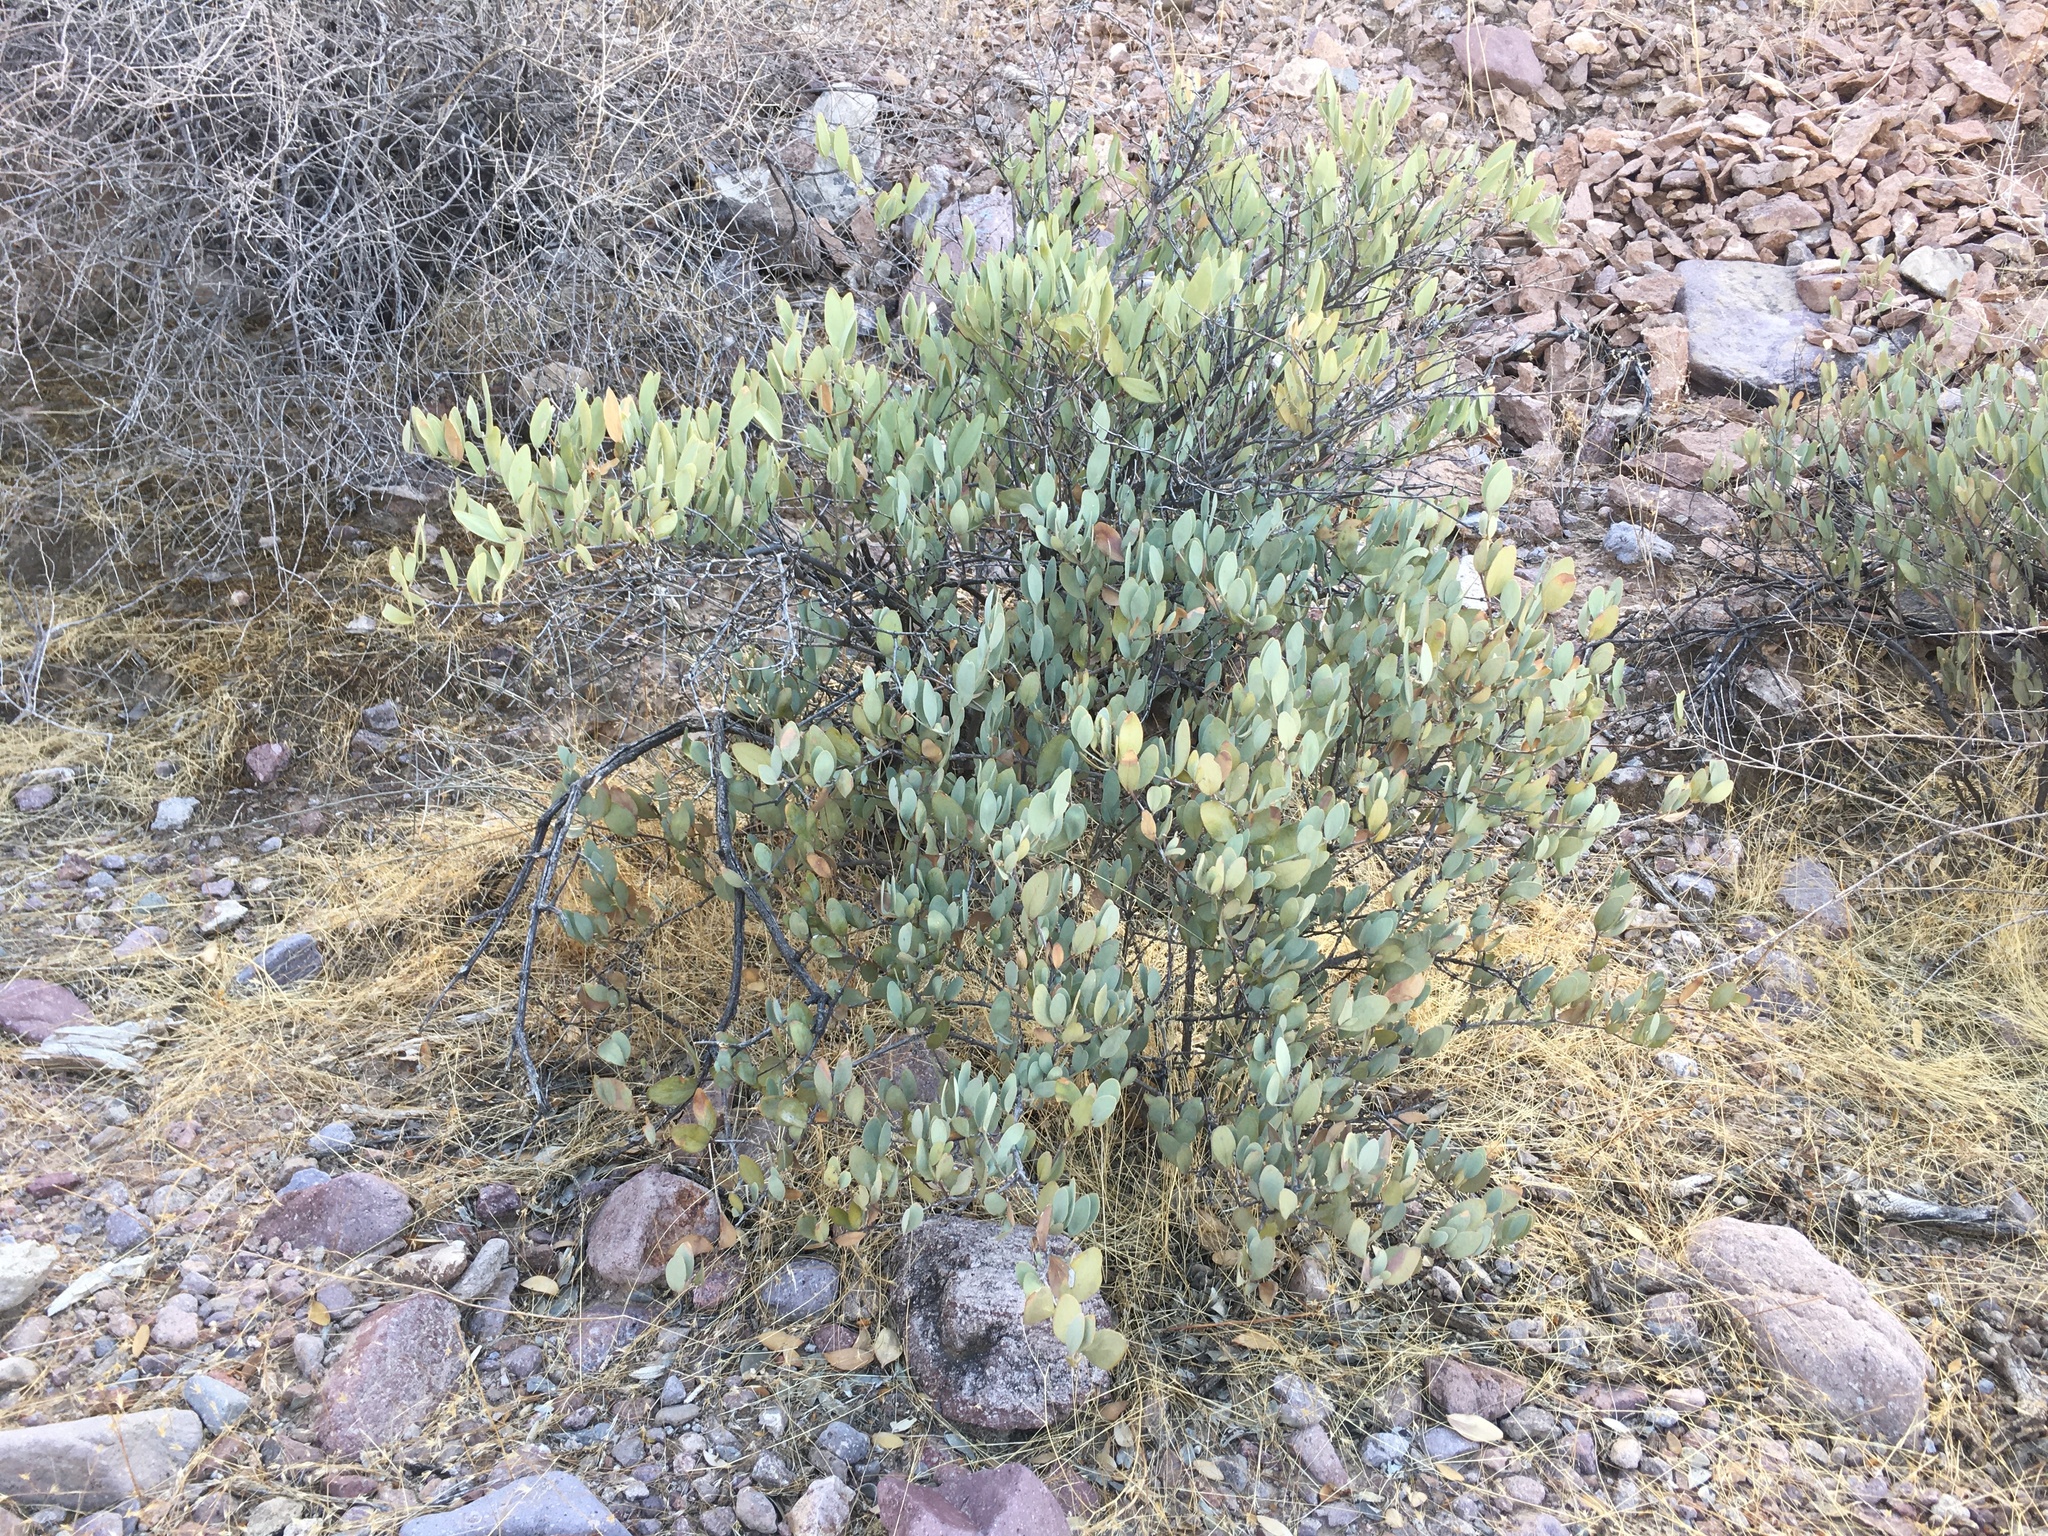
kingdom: Plantae
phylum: Tracheophyta
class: Magnoliopsida
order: Caryophyllales
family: Simmondsiaceae
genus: Simmondsia
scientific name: Simmondsia chinensis
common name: Jojoba
